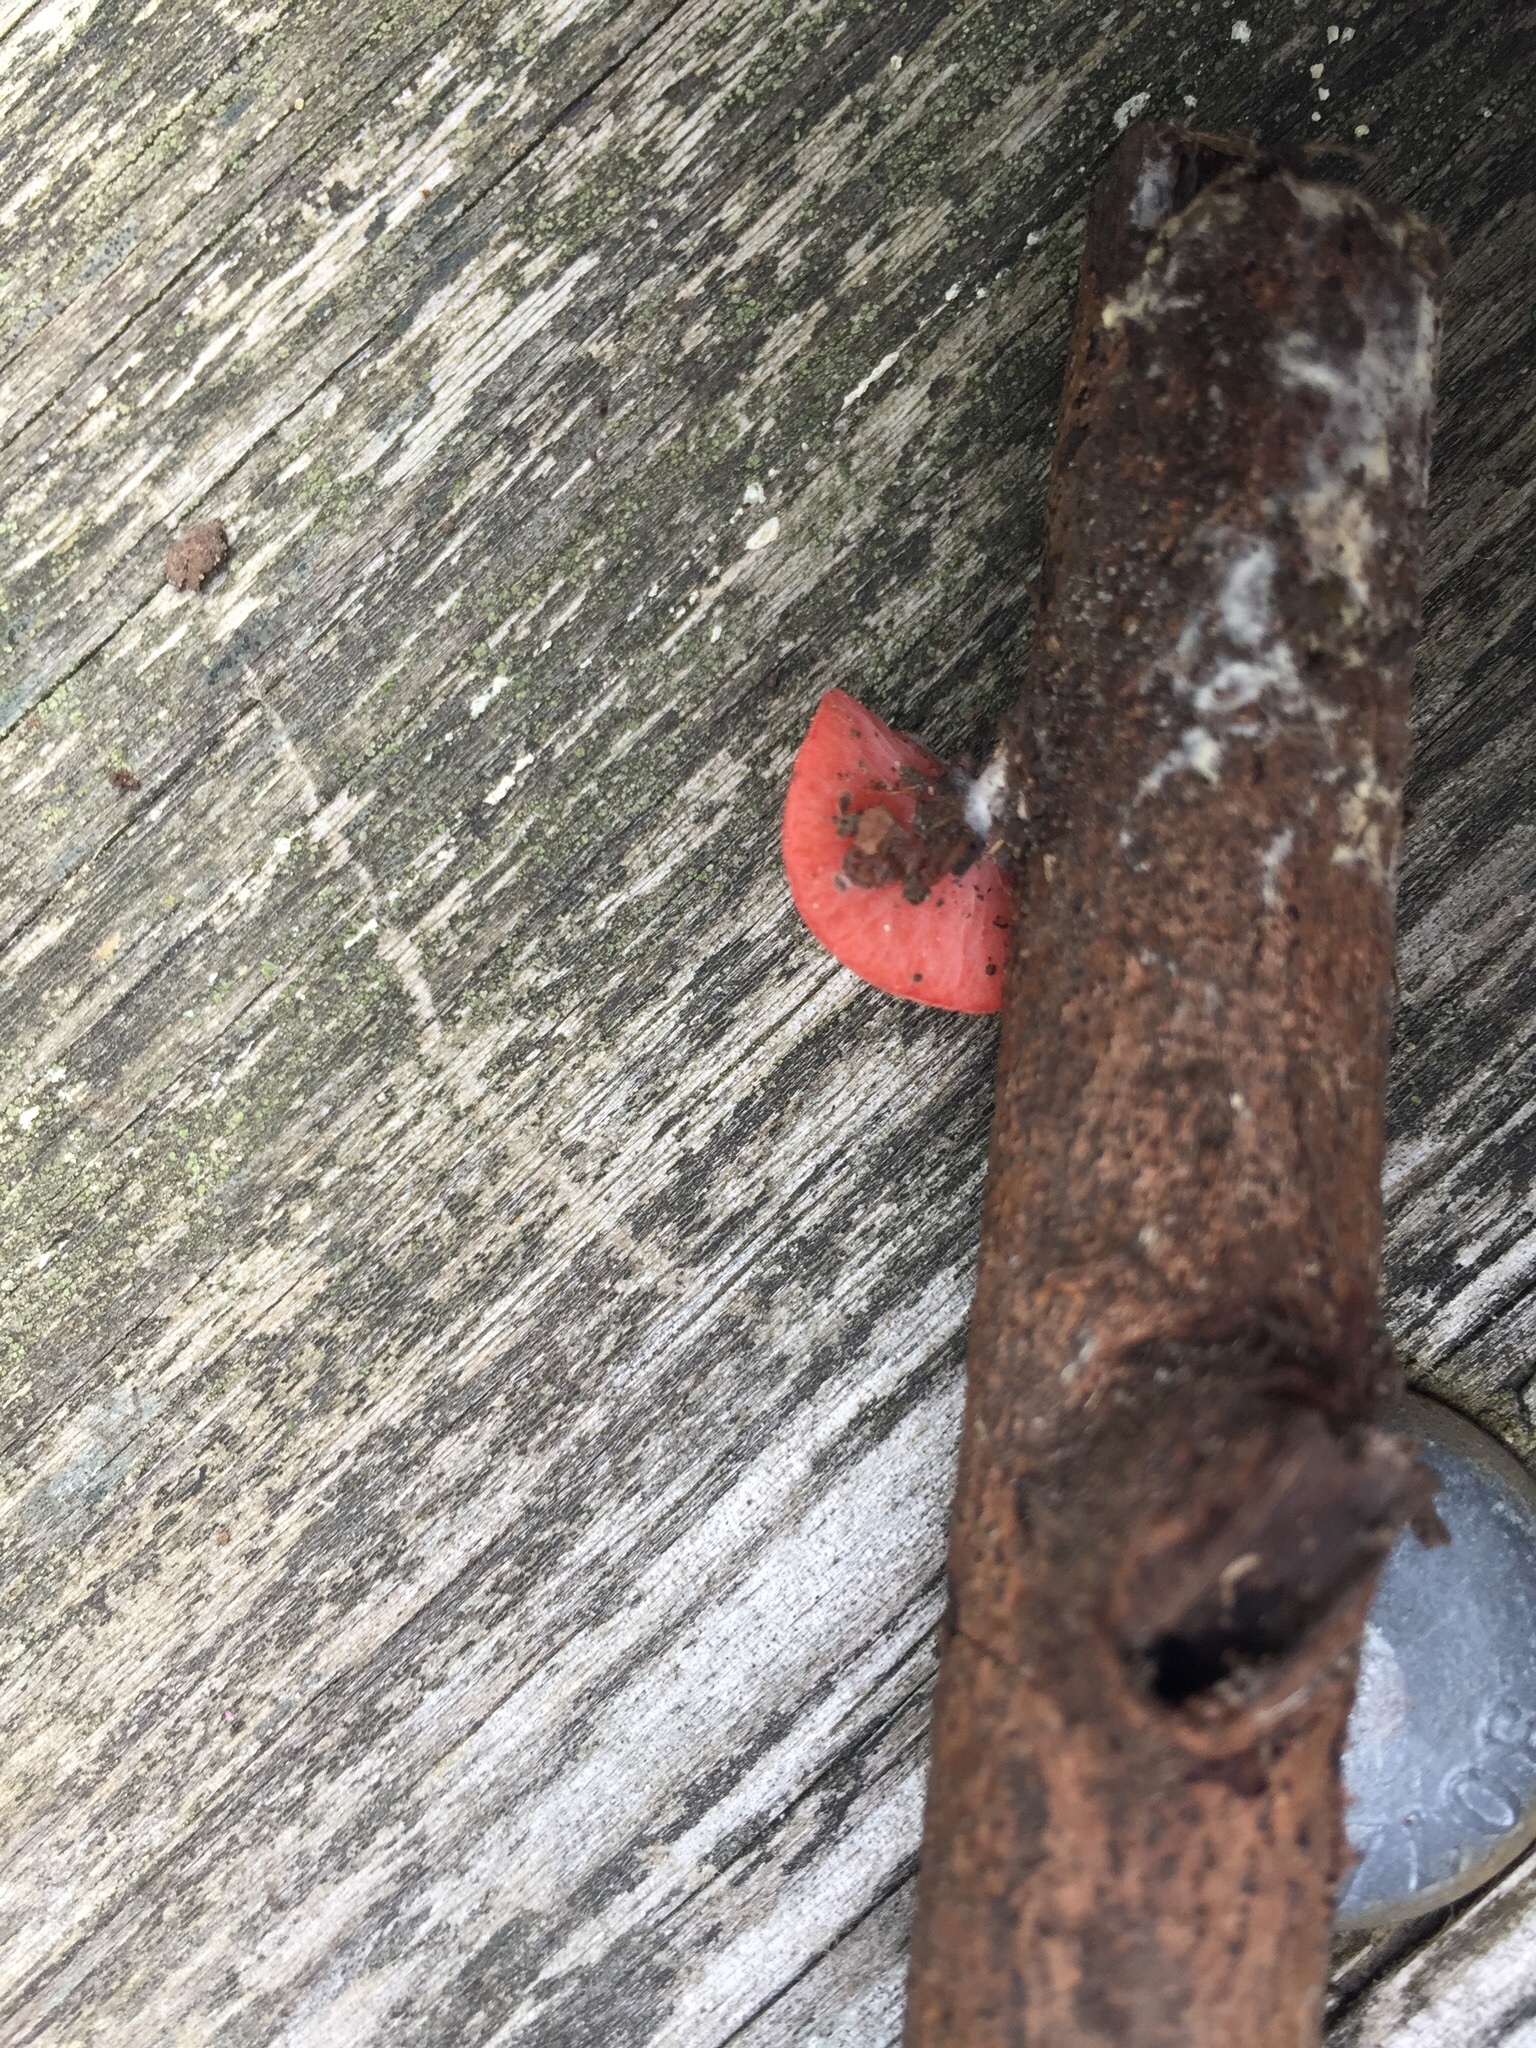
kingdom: Fungi
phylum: Ascomycota
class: Pezizomycetes
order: Pezizales
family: Sarcoscyphaceae
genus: Sarcoscypha
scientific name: Sarcoscypha occidentalis
